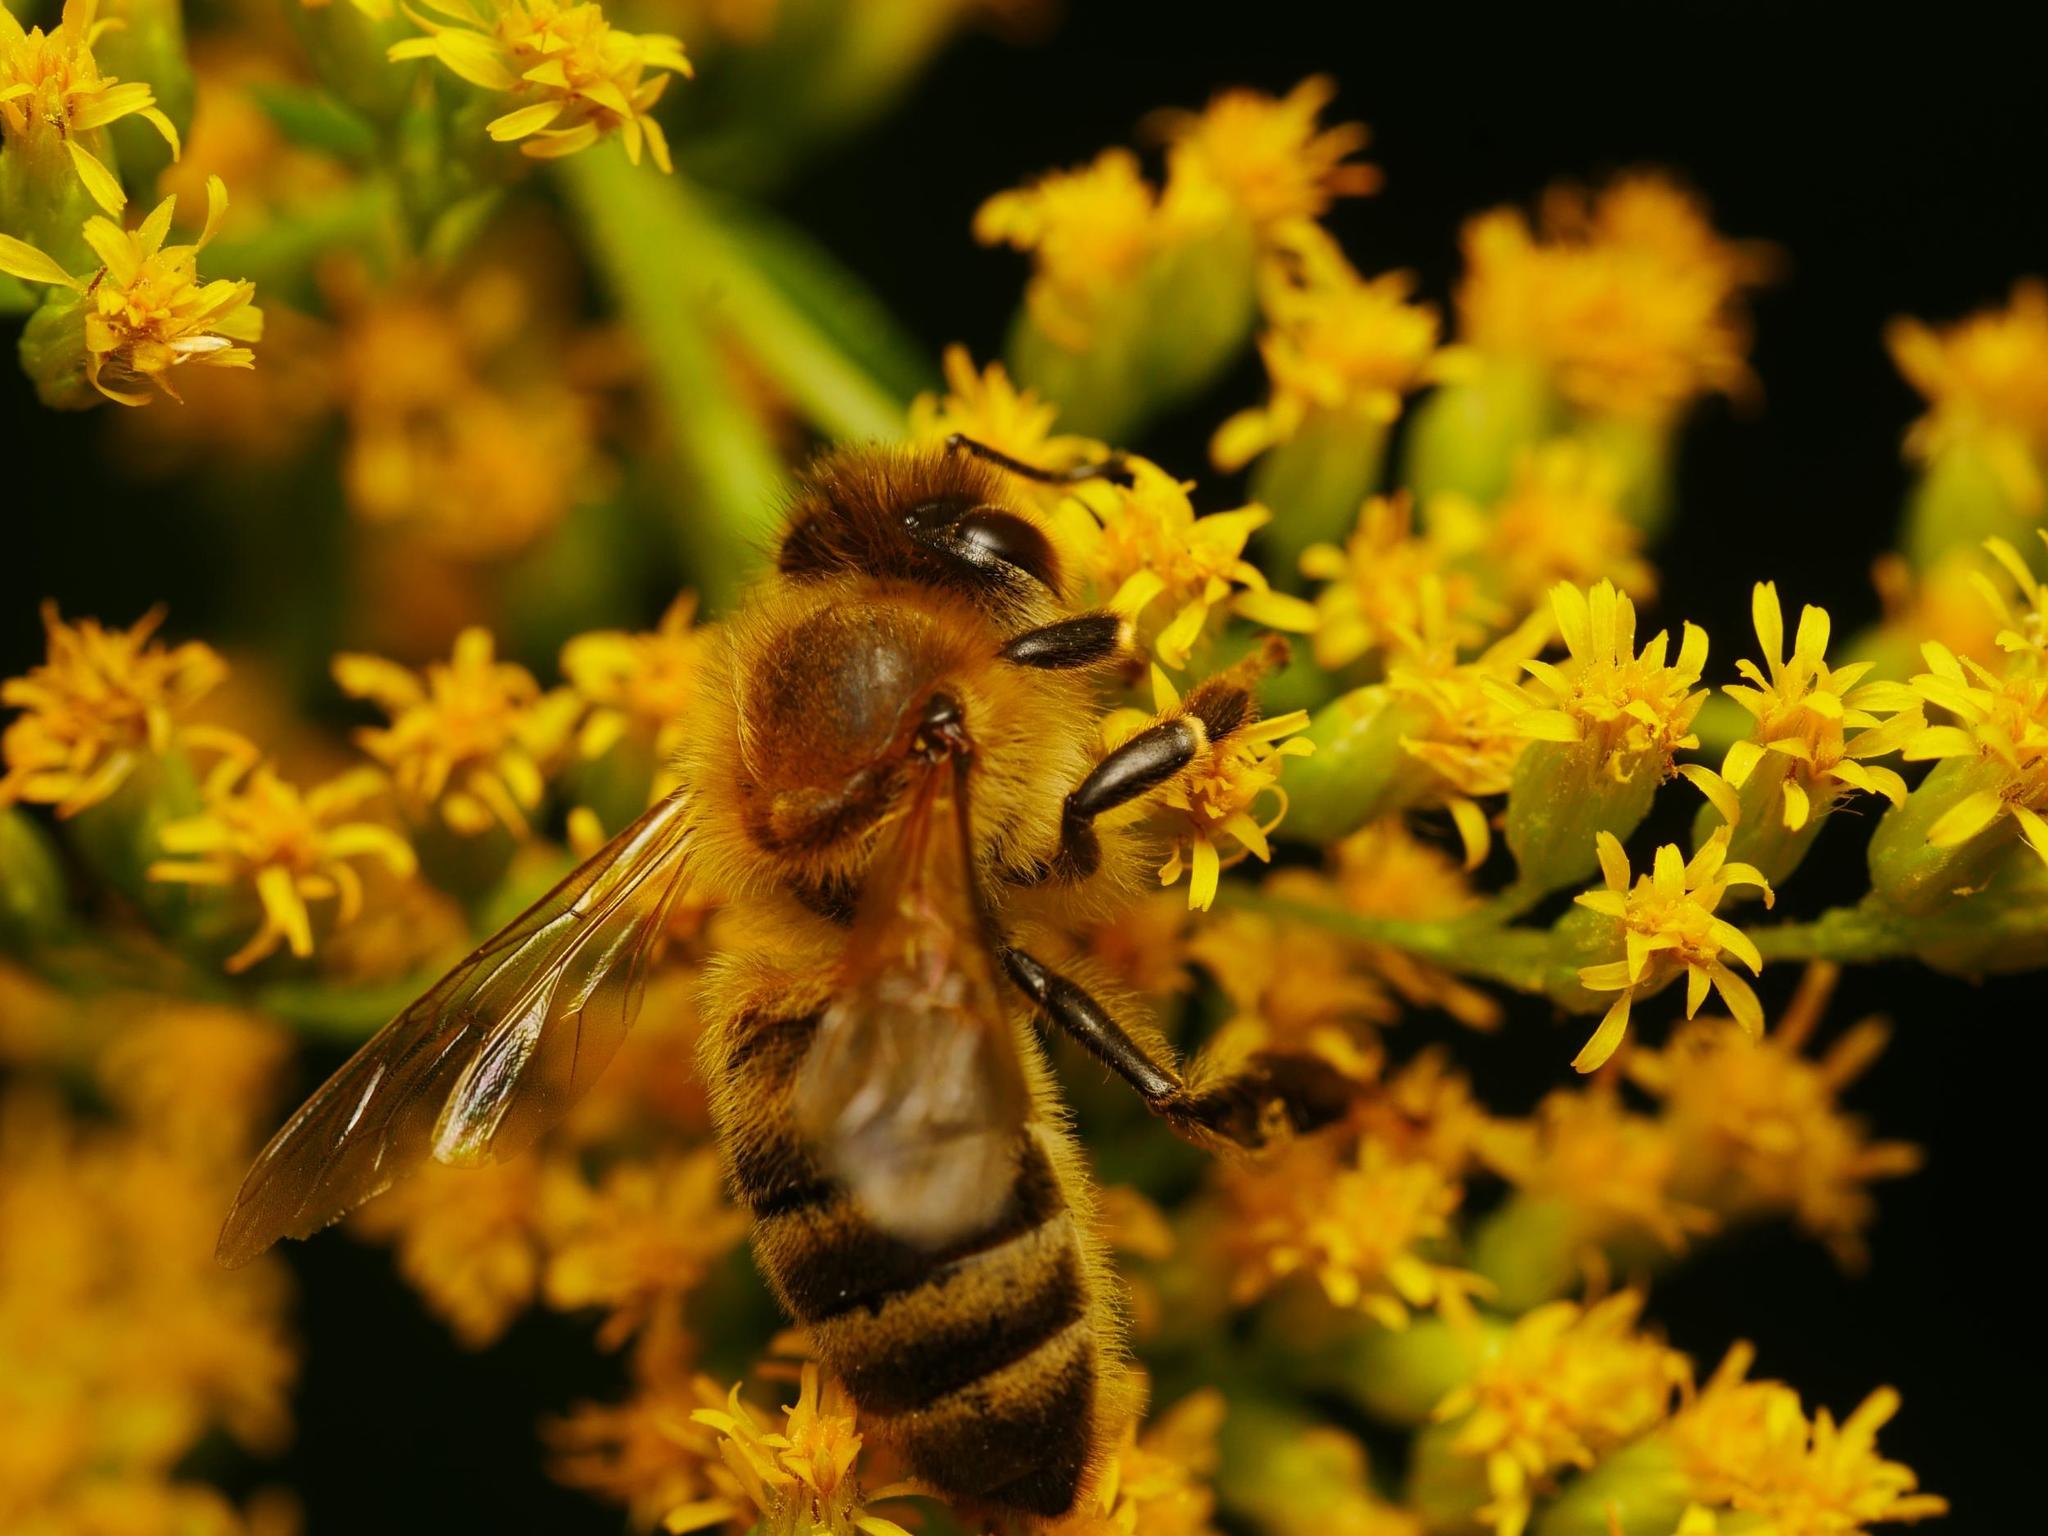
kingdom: Animalia
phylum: Arthropoda
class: Insecta
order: Hymenoptera
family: Apidae
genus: Apis
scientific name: Apis mellifera
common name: Honey bee
